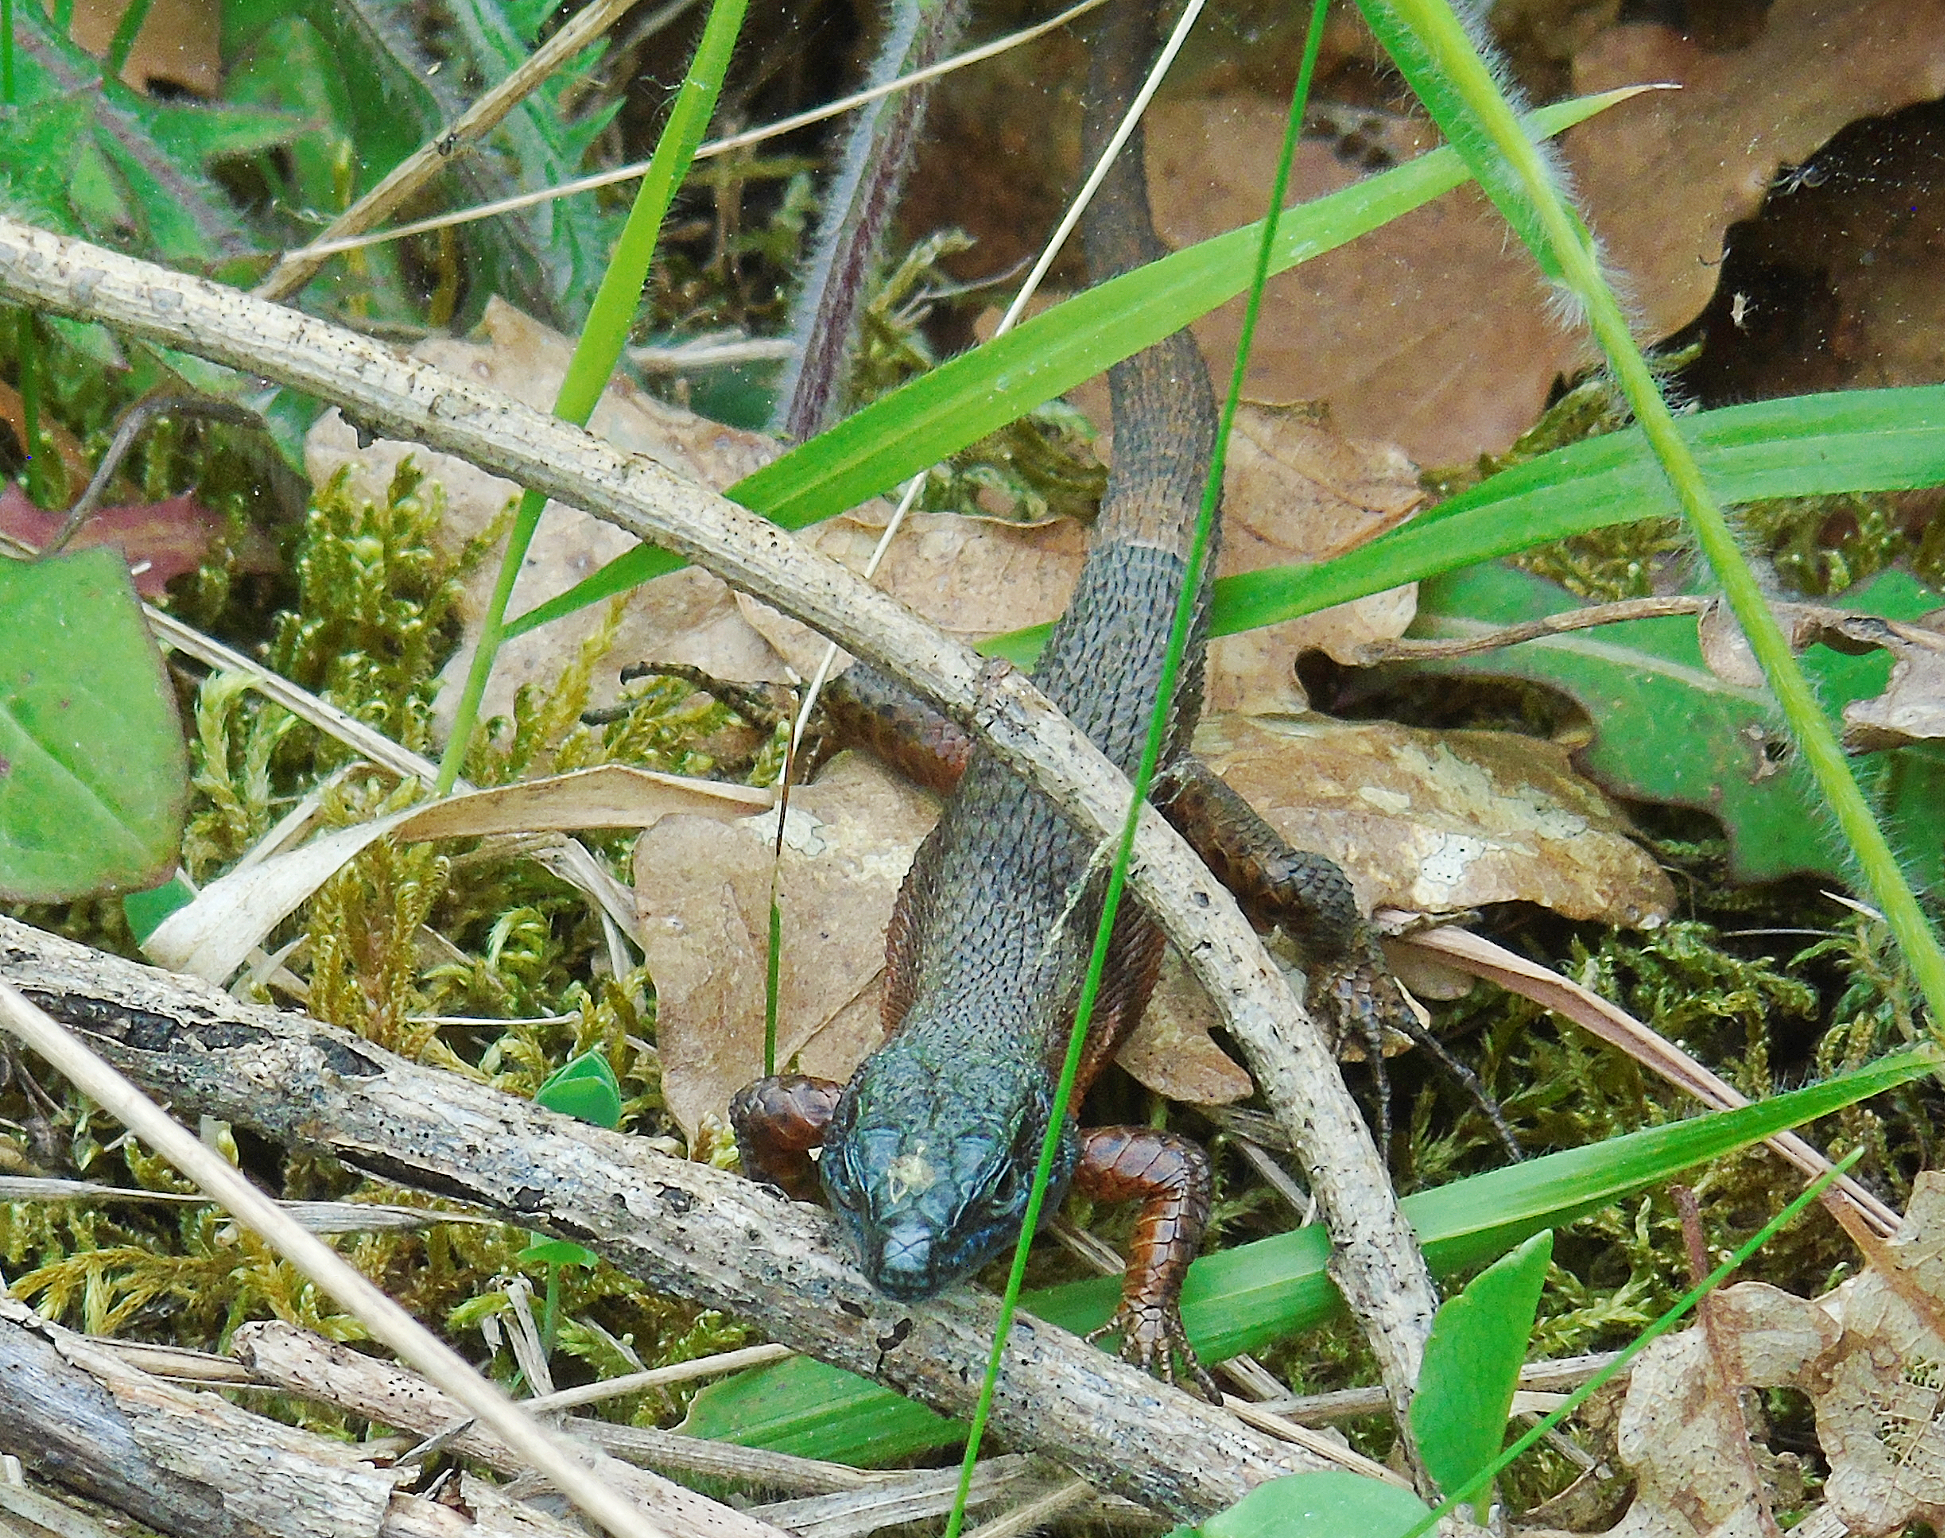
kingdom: Animalia
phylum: Chordata
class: Squamata
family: Lacertidae
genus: Algyroides
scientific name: Algyroides nigropunctatus
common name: Blue-throated keeled lizard
